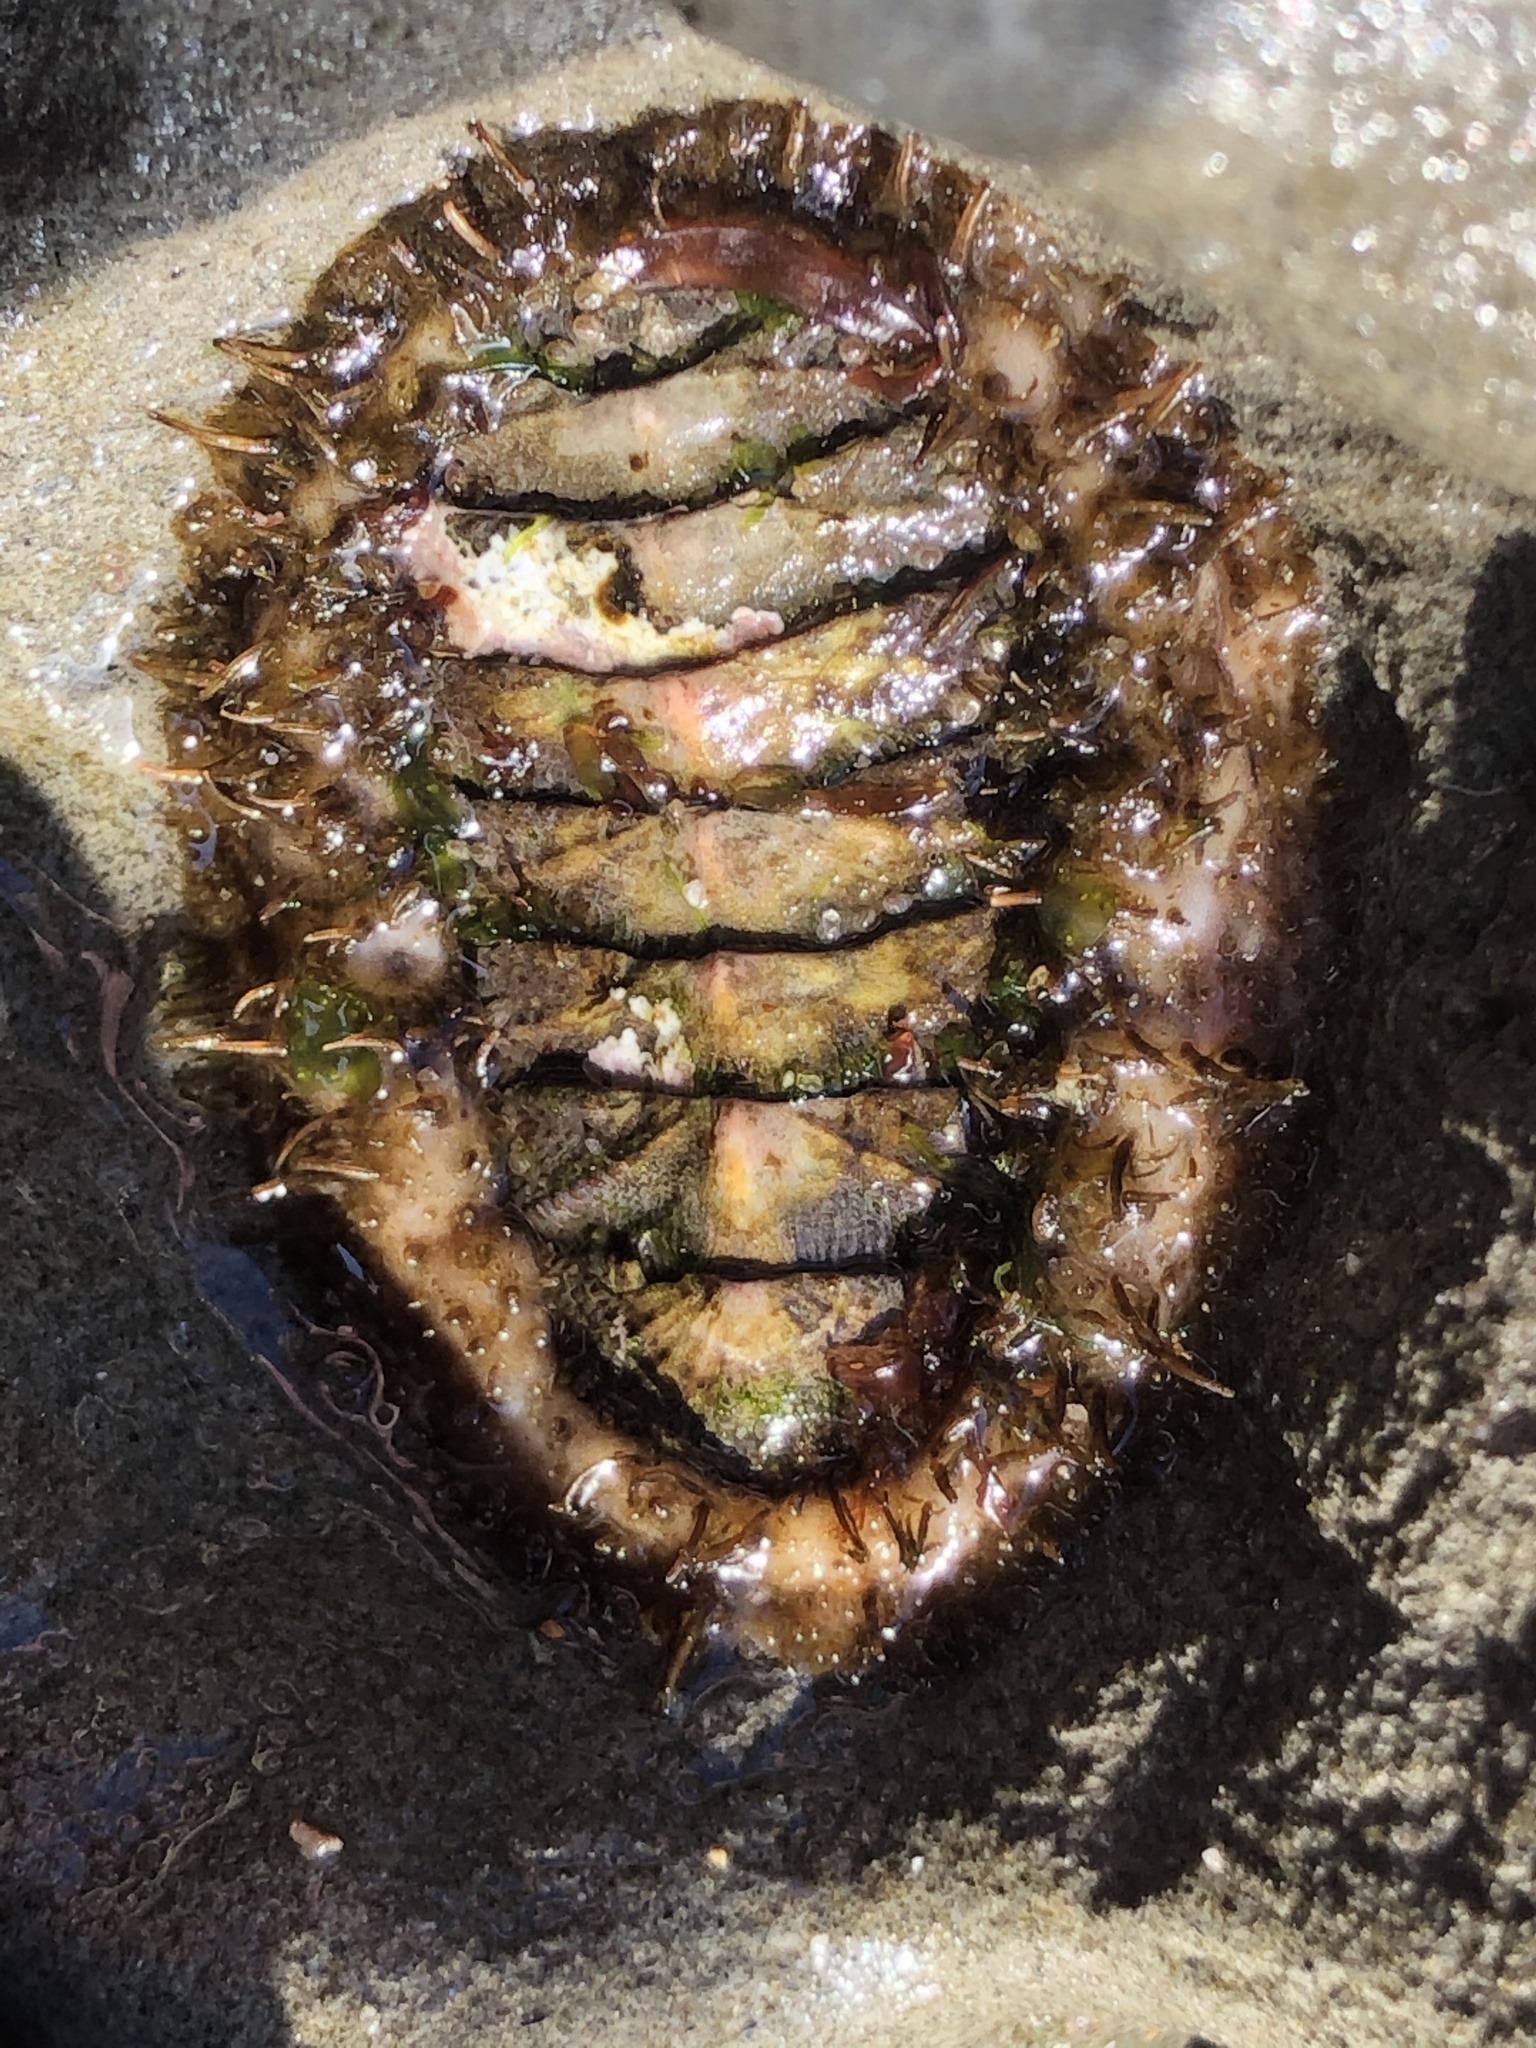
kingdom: Animalia
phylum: Mollusca
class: Polyplacophora
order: Chitonida
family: Mopaliidae
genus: Mopalia
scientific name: Mopalia muscosa
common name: Mossy chiton
